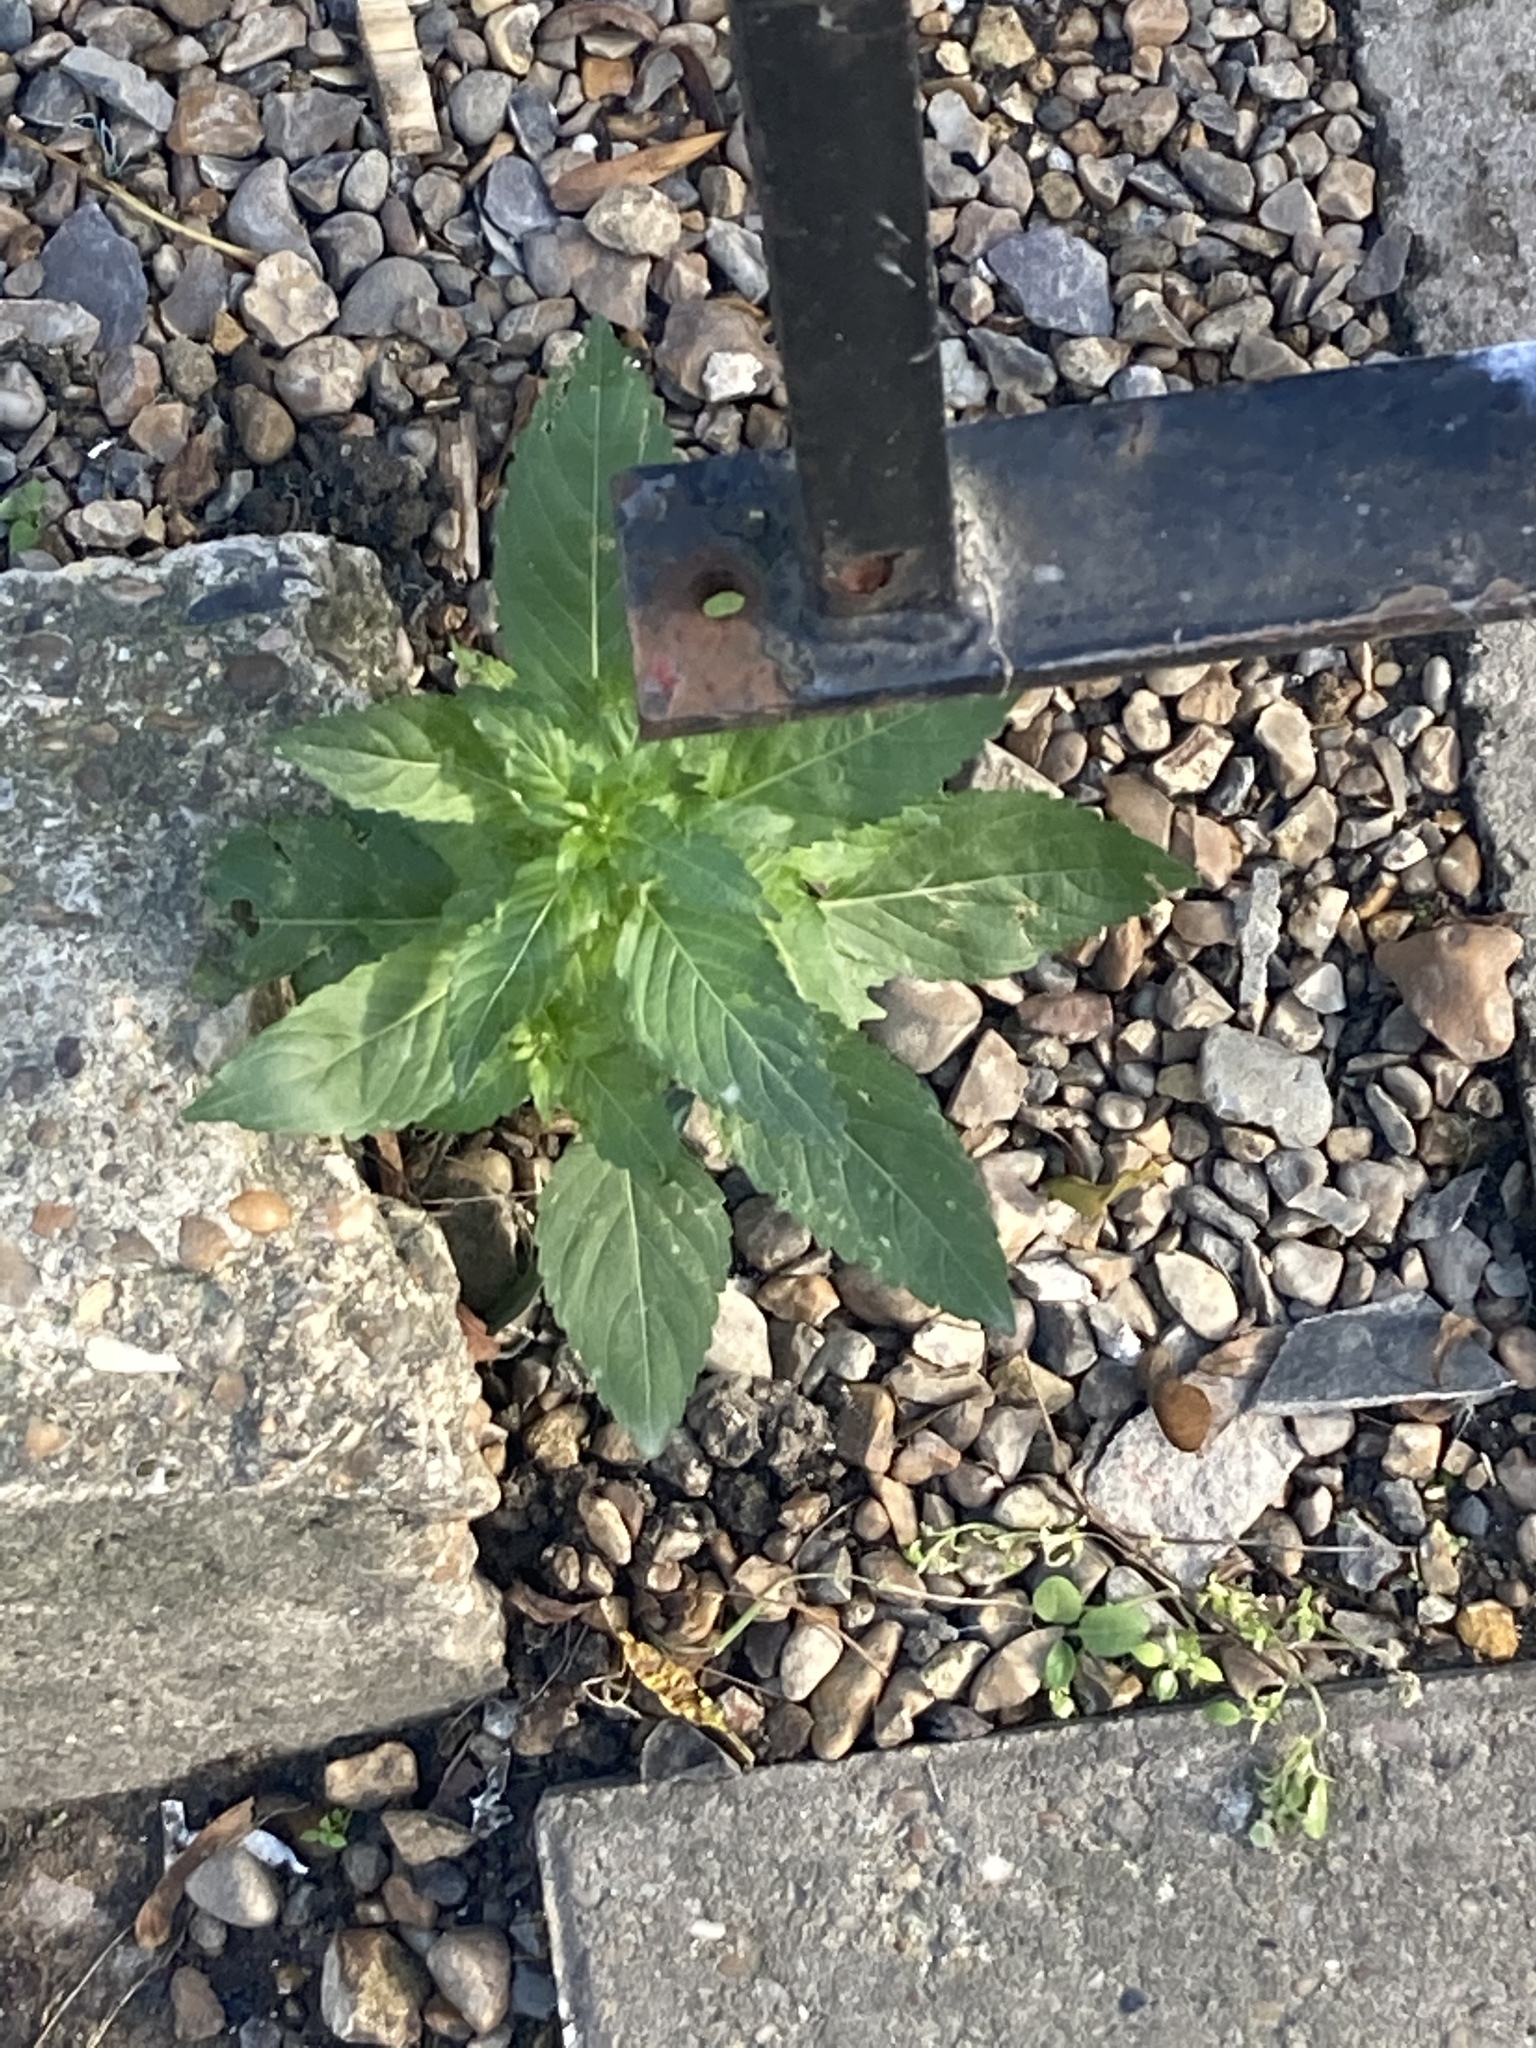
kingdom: Plantae
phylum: Tracheophyta
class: Magnoliopsida
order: Malpighiales
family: Euphorbiaceae
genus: Mercurialis
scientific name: Mercurialis annua
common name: Annual mercury
